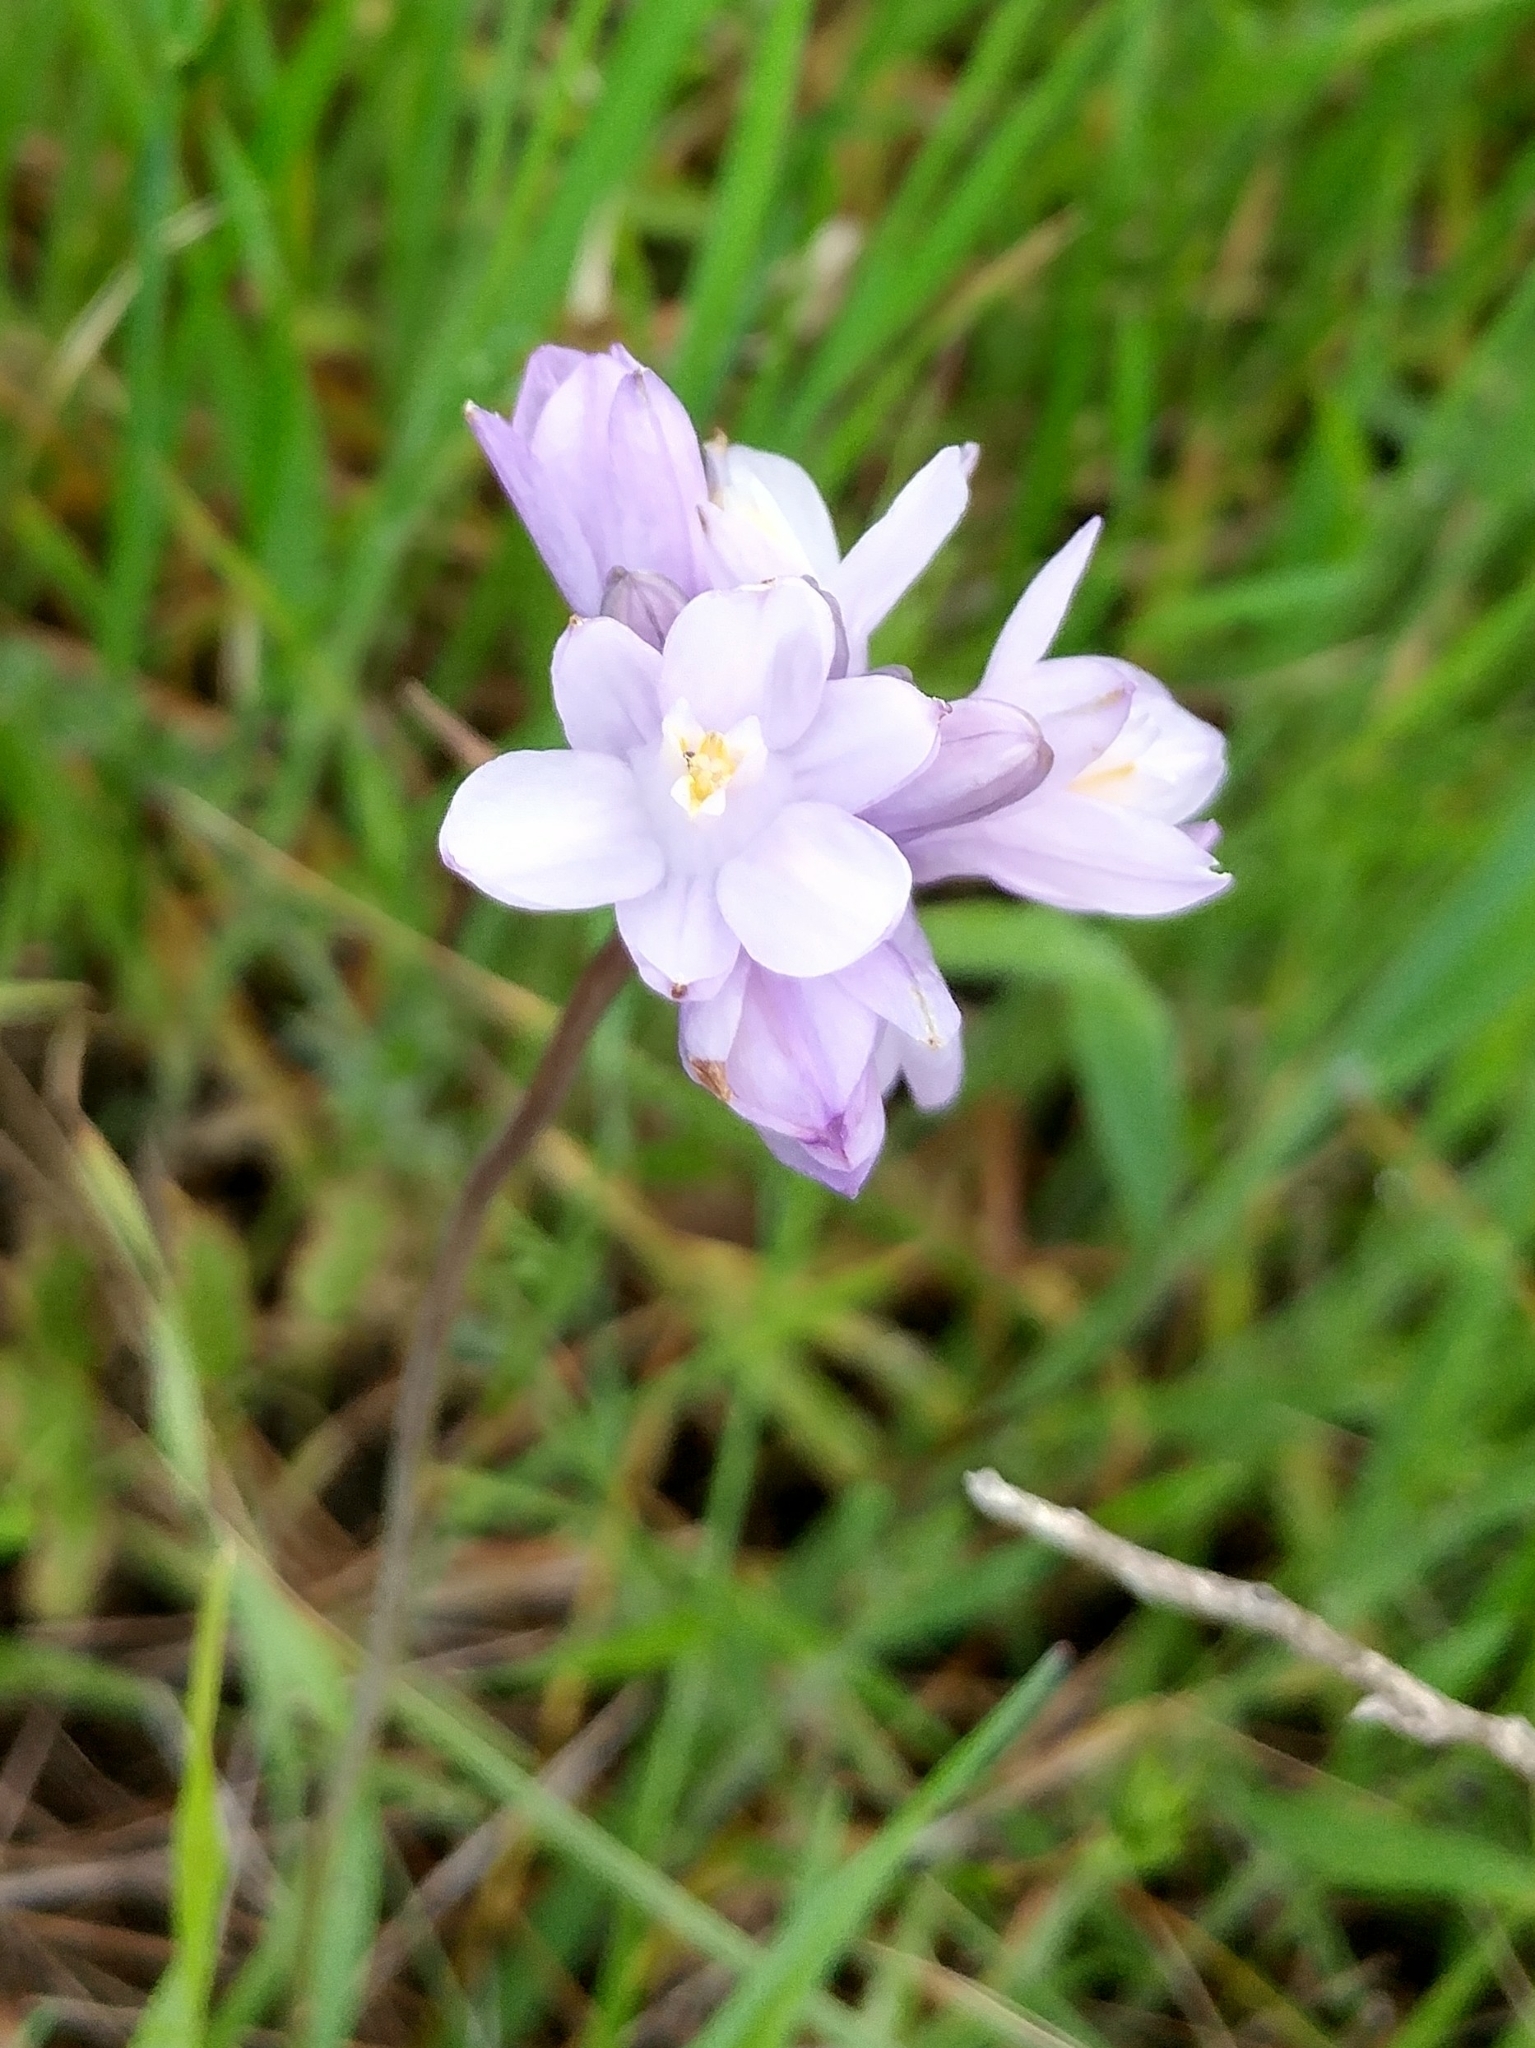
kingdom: Plantae
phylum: Tracheophyta
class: Liliopsida
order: Asparagales
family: Asparagaceae
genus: Dipterostemon
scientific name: Dipterostemon capitatus
